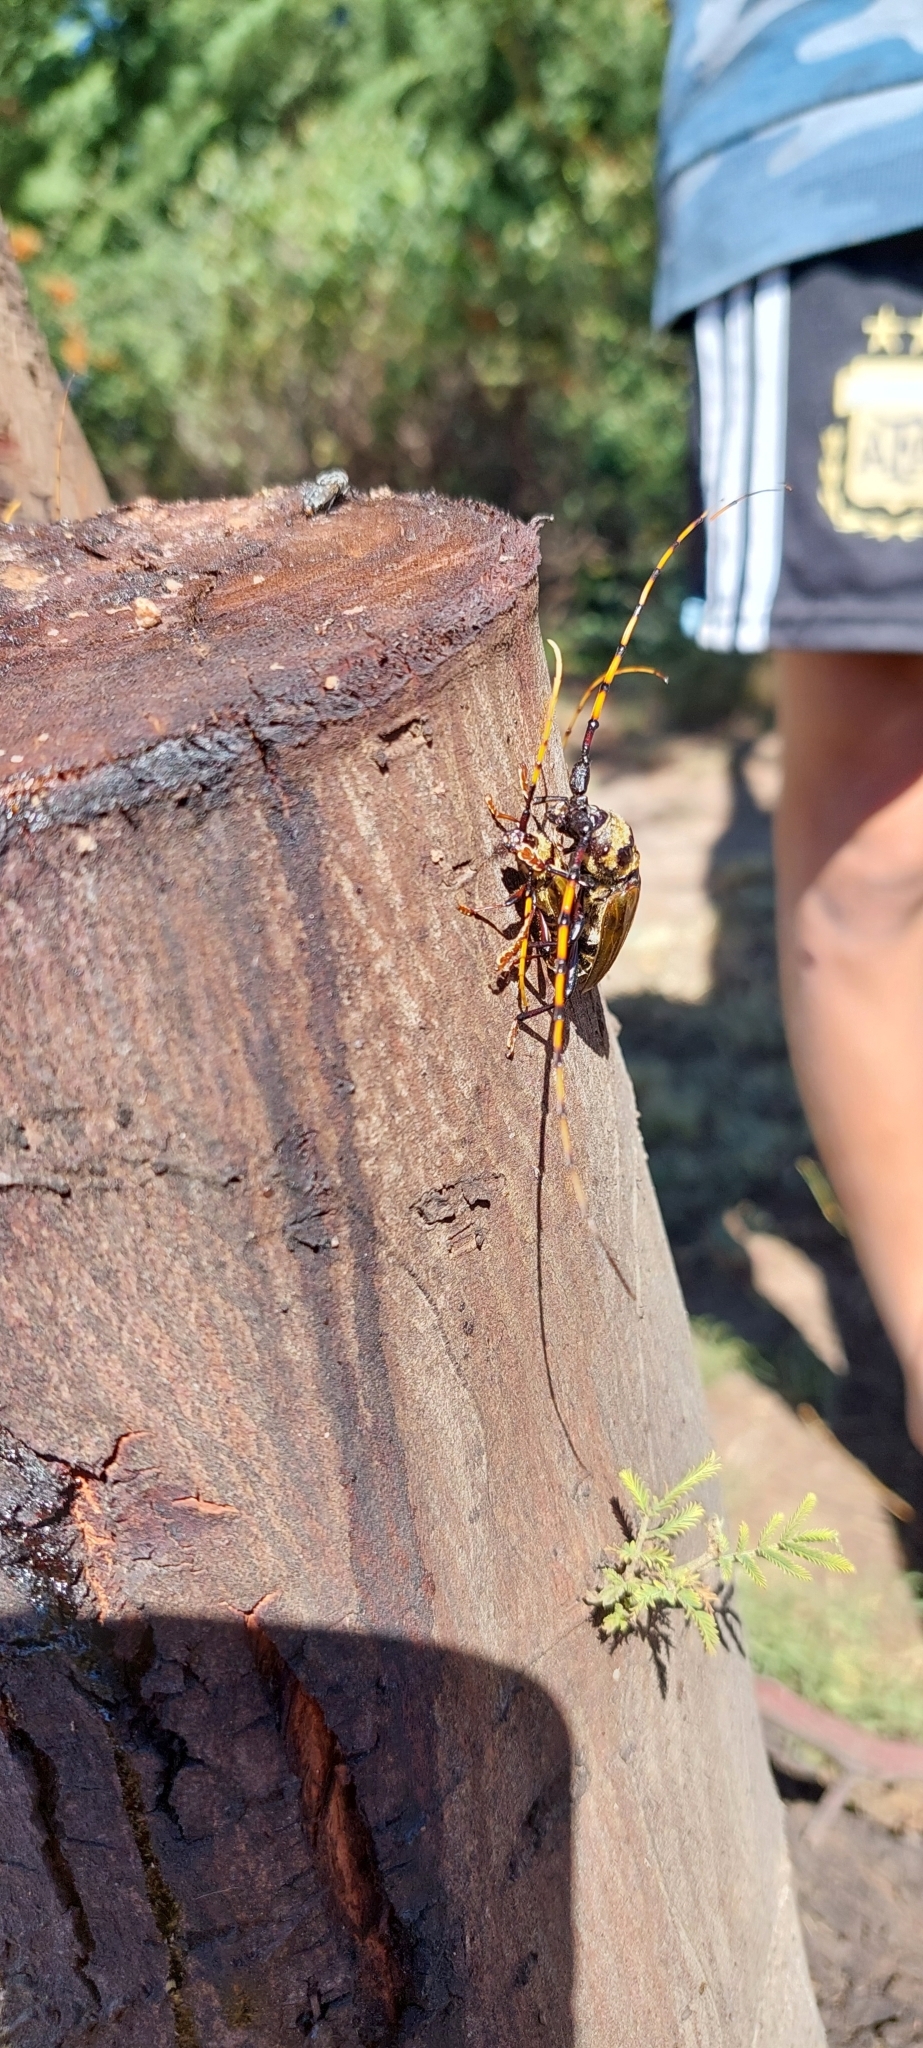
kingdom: Animalia
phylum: Arthropoda
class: Insecta
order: Coleoptera
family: Cerambycidae
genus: Retrachydes
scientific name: Retrachydes thoracicus
